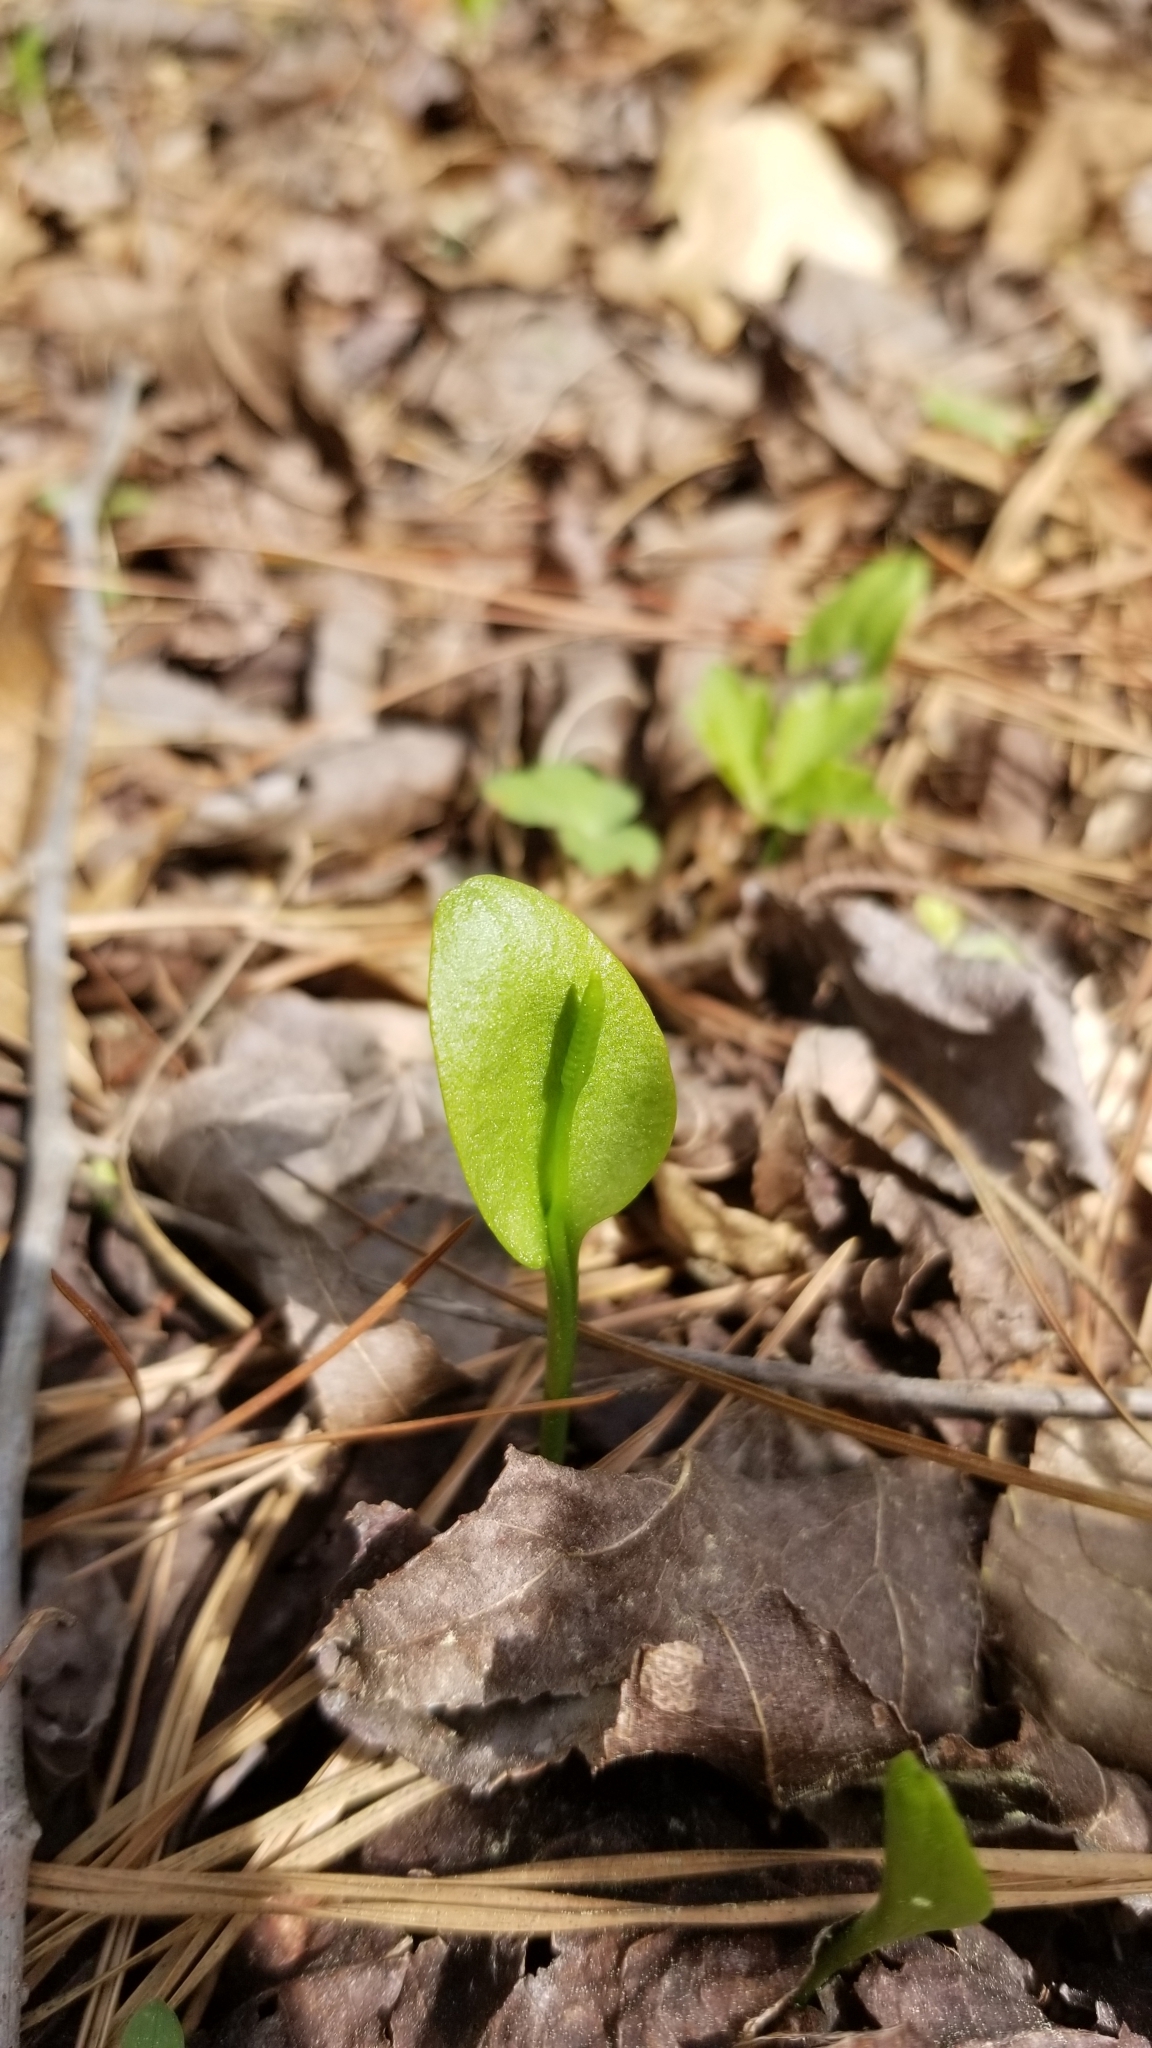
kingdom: Plantae
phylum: Tracheophyta
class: Polypodiopsida
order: Ophioglossales
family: Ophioglossaceae
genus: Ophioglossum
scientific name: Ophioglossum vulgatum
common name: Adder's-tongue
